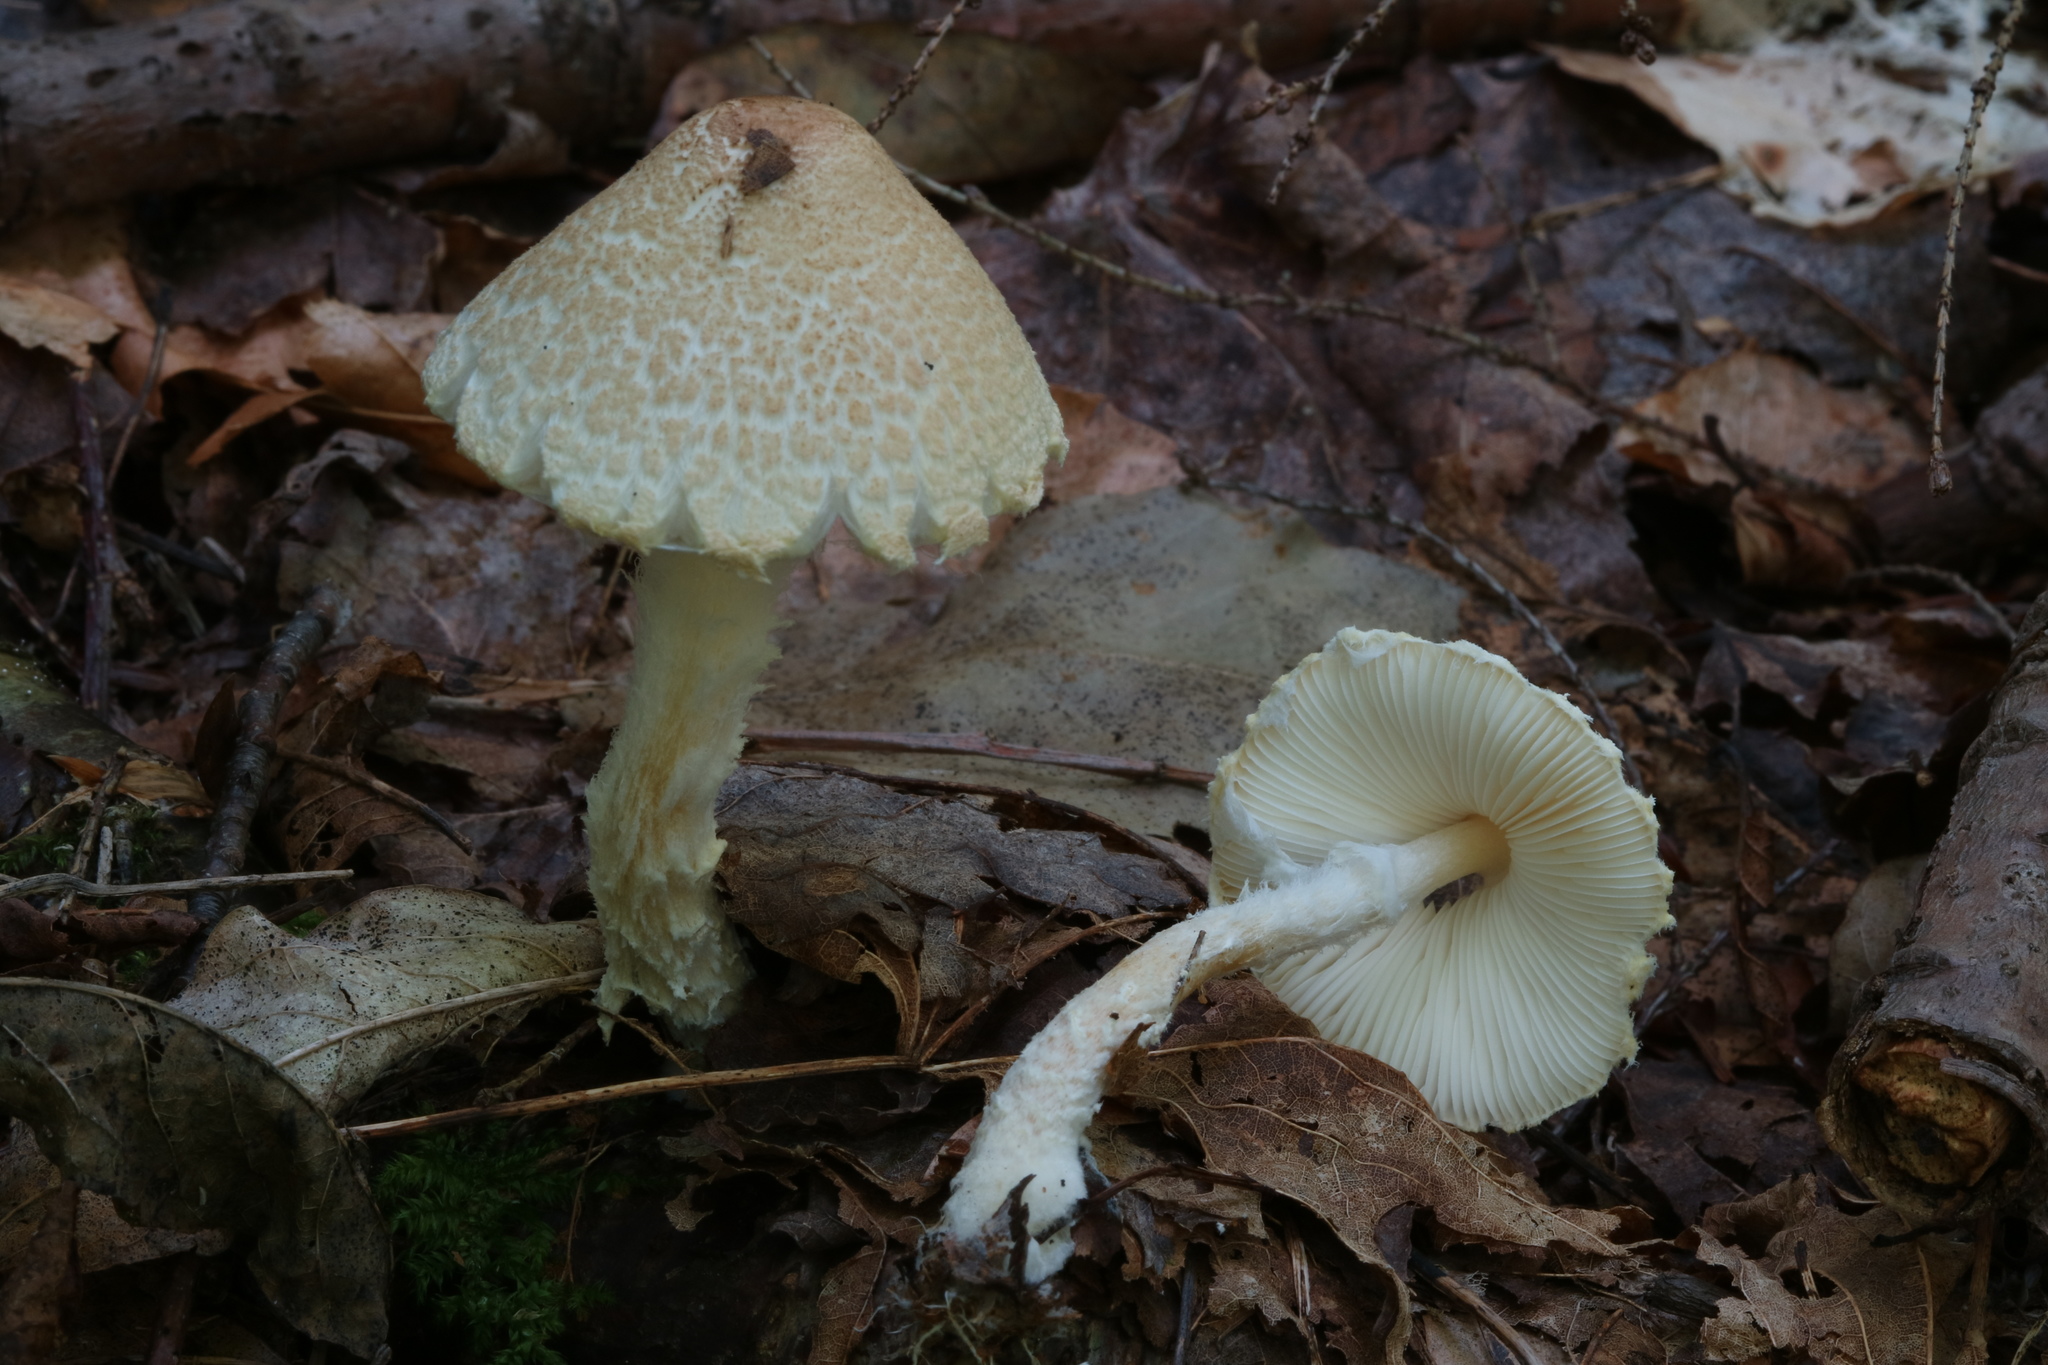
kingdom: Fungi
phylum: Basidiomycota
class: Agaricomycetes
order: Agaricales
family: Agaricaceae
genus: Lepiota
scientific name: Lepiota clypeolaria
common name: Shield dapperling
